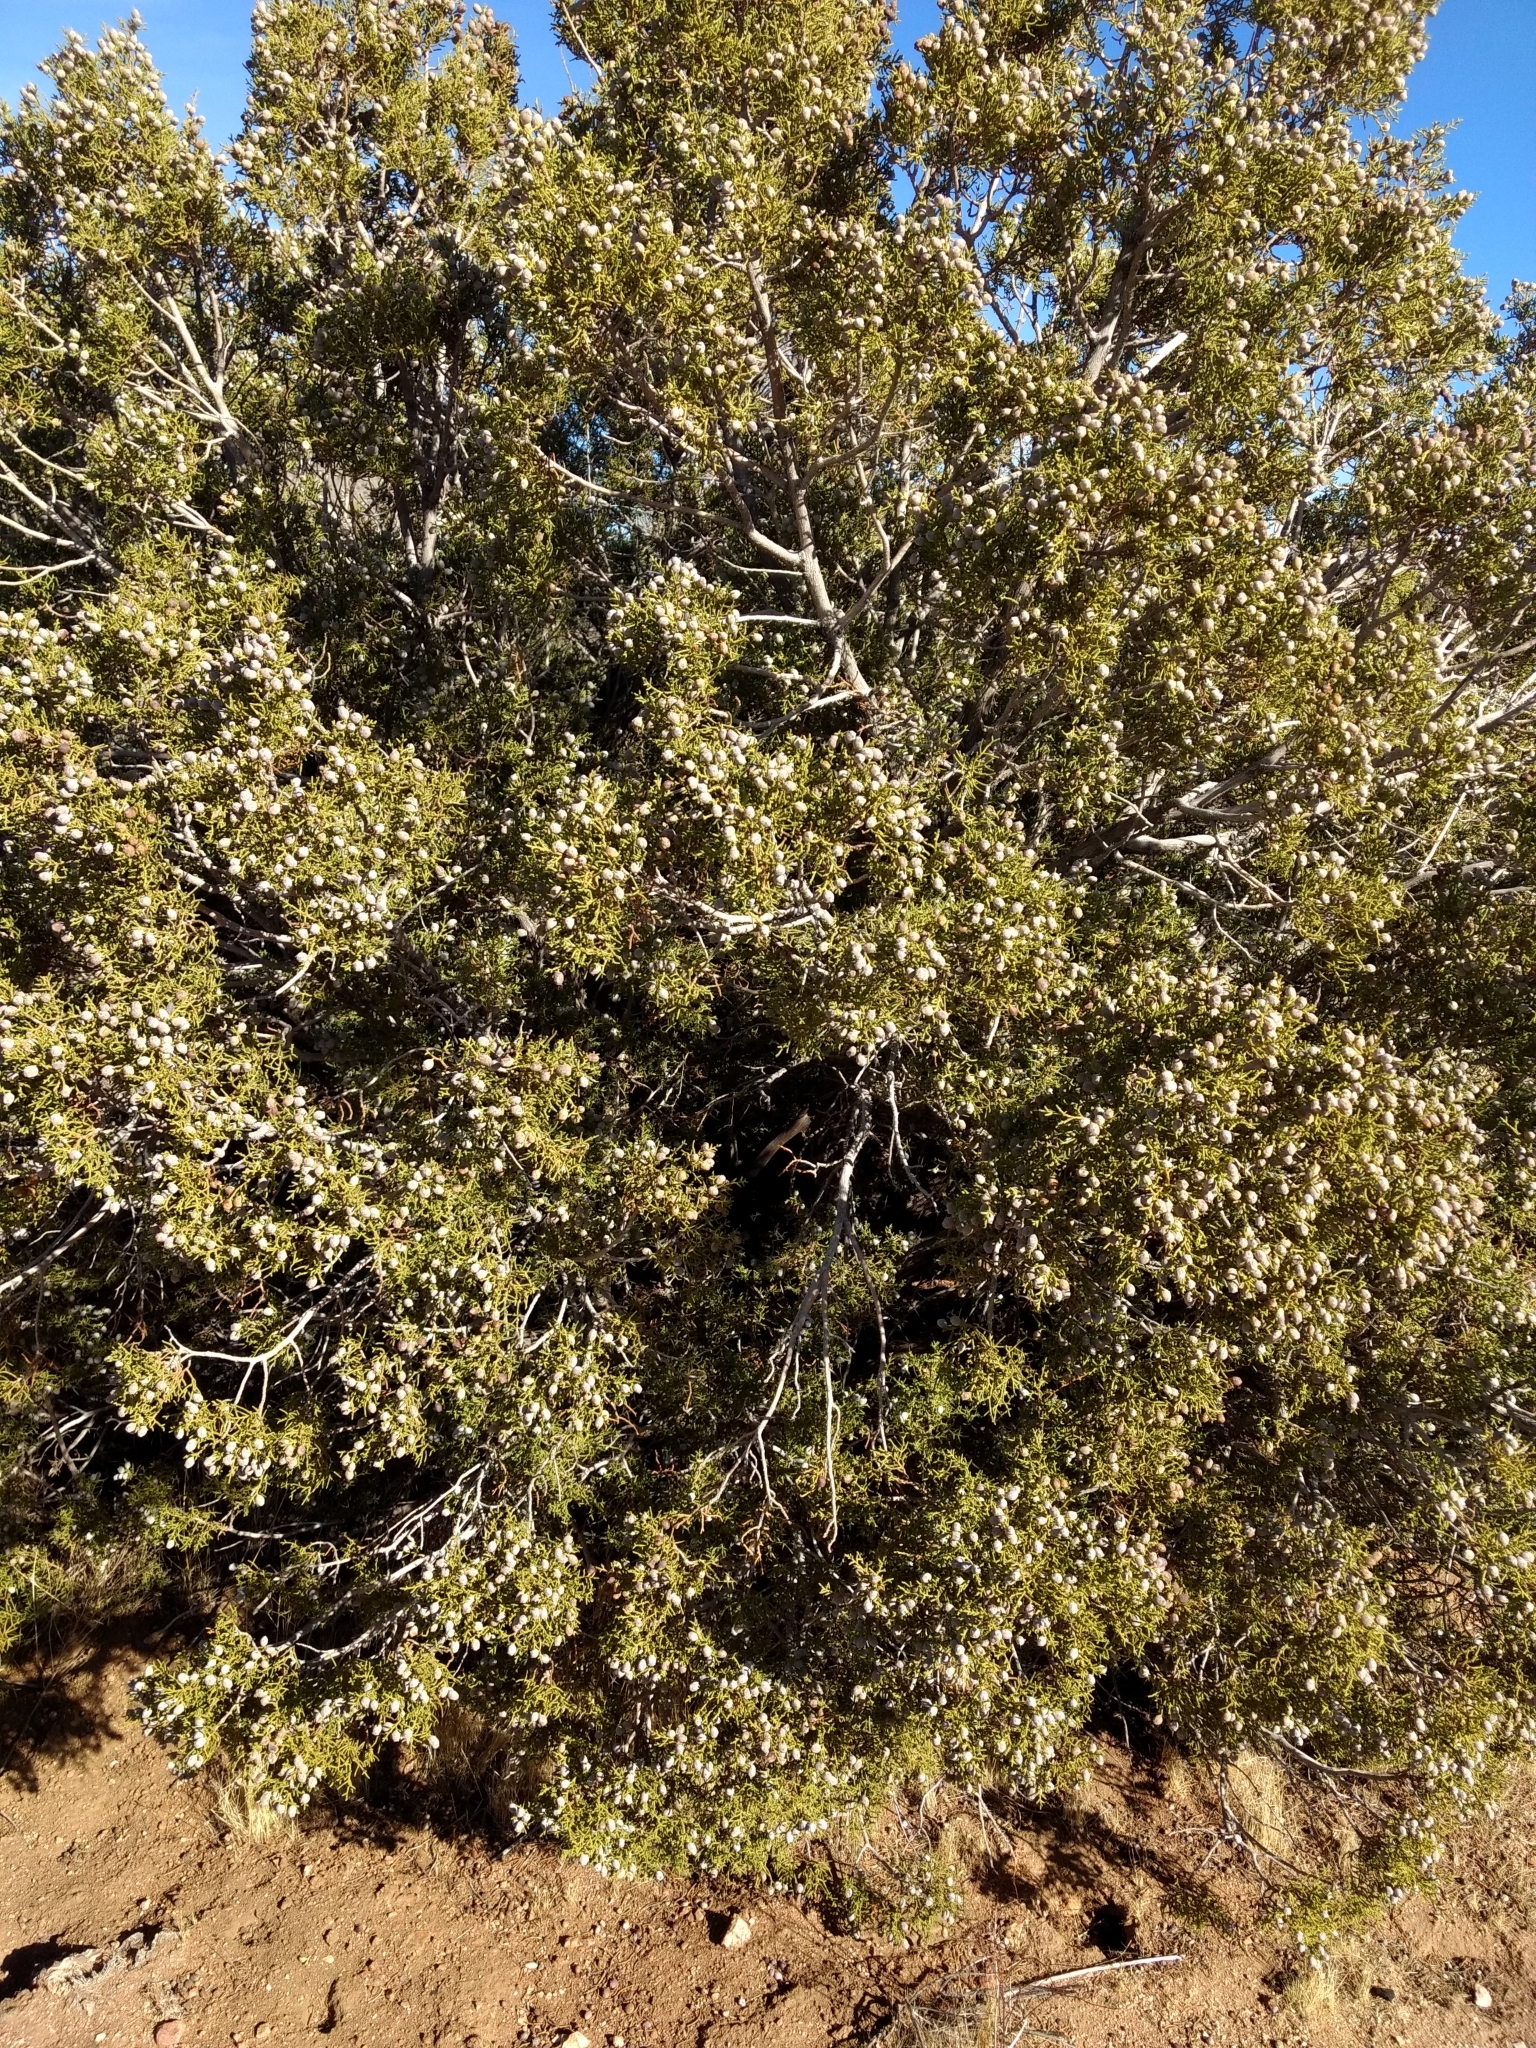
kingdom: Plantae
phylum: Tracheophyta
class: Pinopsida
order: Pinales
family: Cupressaceae
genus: Juniperus
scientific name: Juniperus californica
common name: California juniper
